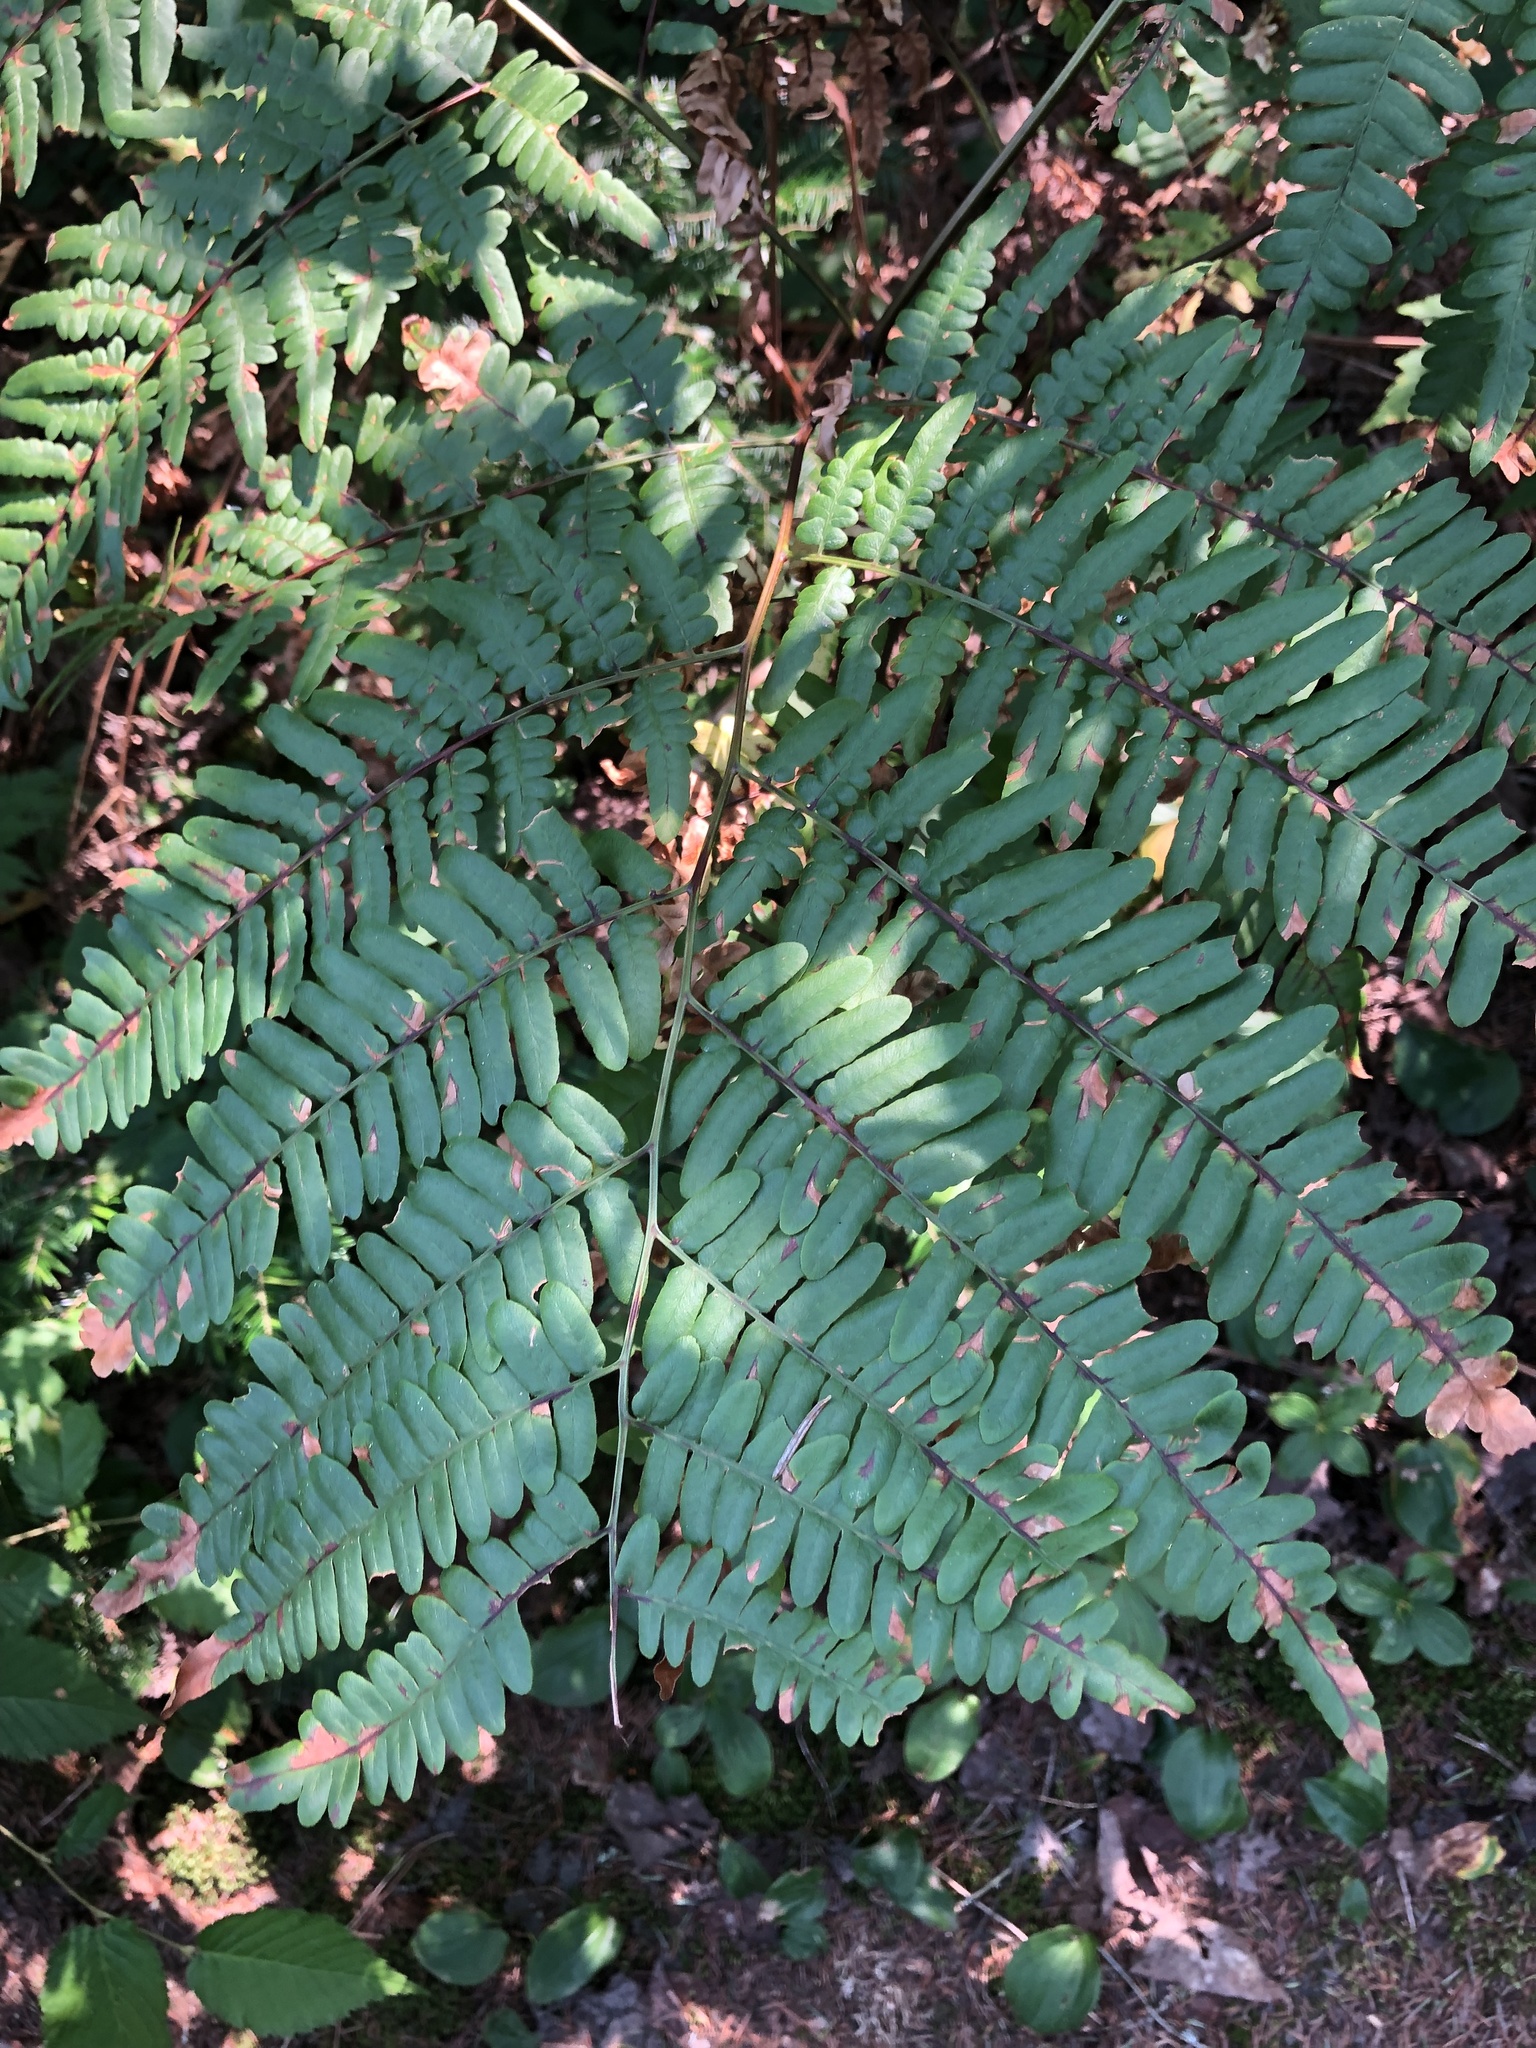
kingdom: Plantae
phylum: Tracheophyta
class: Polypodiopsida
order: Polypodiales
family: Dennstaedtiaceae
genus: Pteridium
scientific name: Pteridium aquilinum
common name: Bracken
